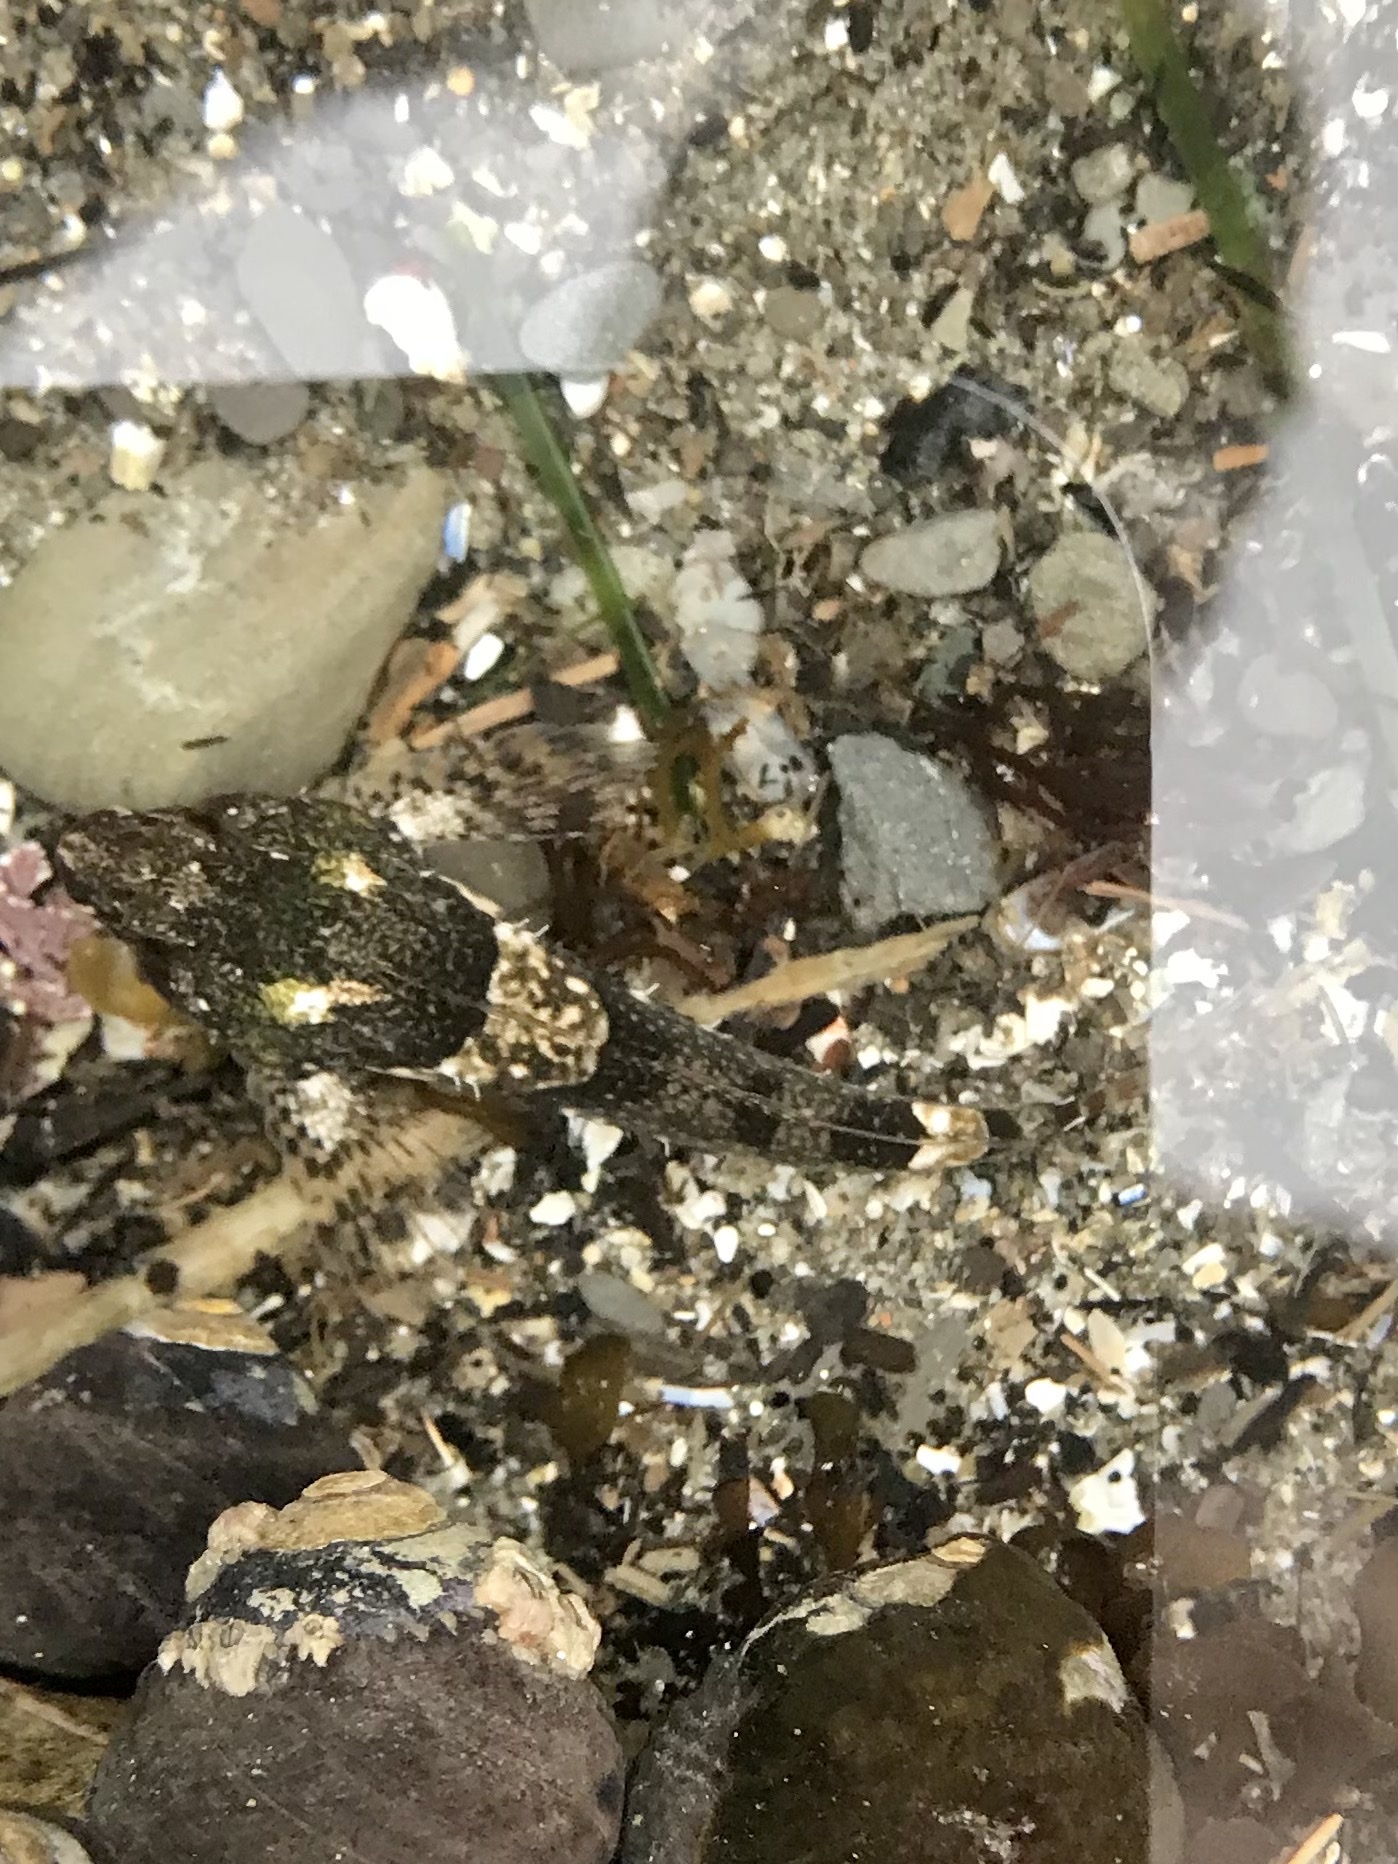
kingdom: Animalia
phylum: Chordata
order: Scorpaeniformes
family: Cottidae
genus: Oligocottus
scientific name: Oligocottus maculosus
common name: Tidepool sculpin
